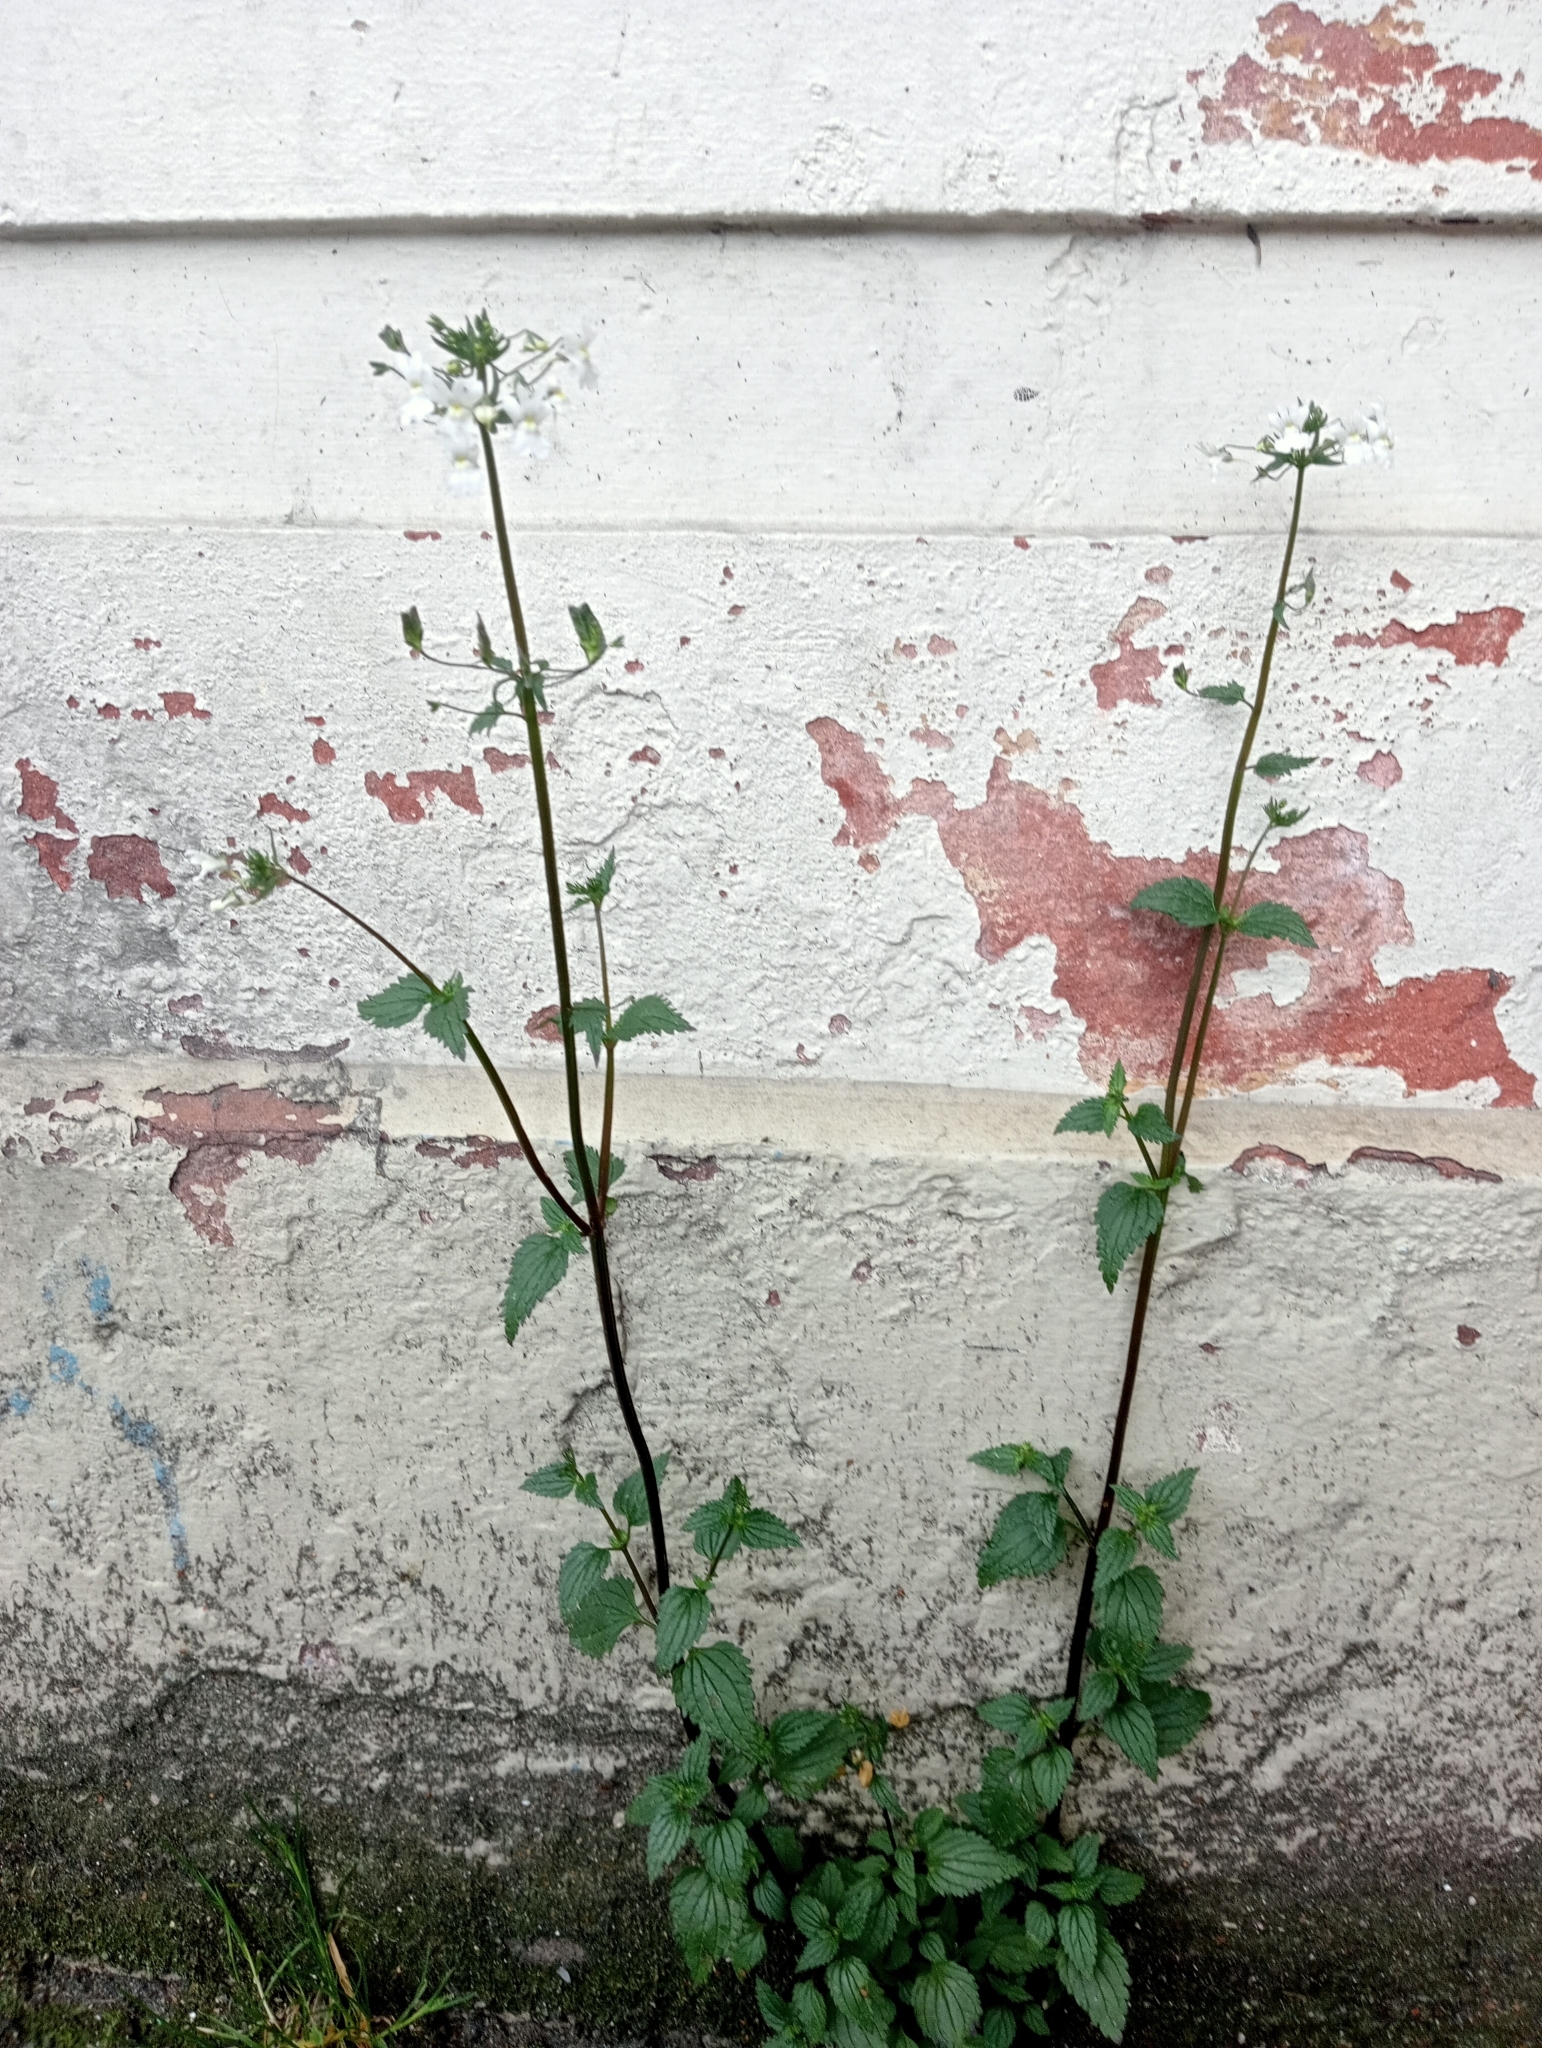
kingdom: Plantae
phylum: Tracheophyta
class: Magnoliopsida
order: Lamiales
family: Scrophulariaceae
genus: Nemesia
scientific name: Nemesia floribunda
